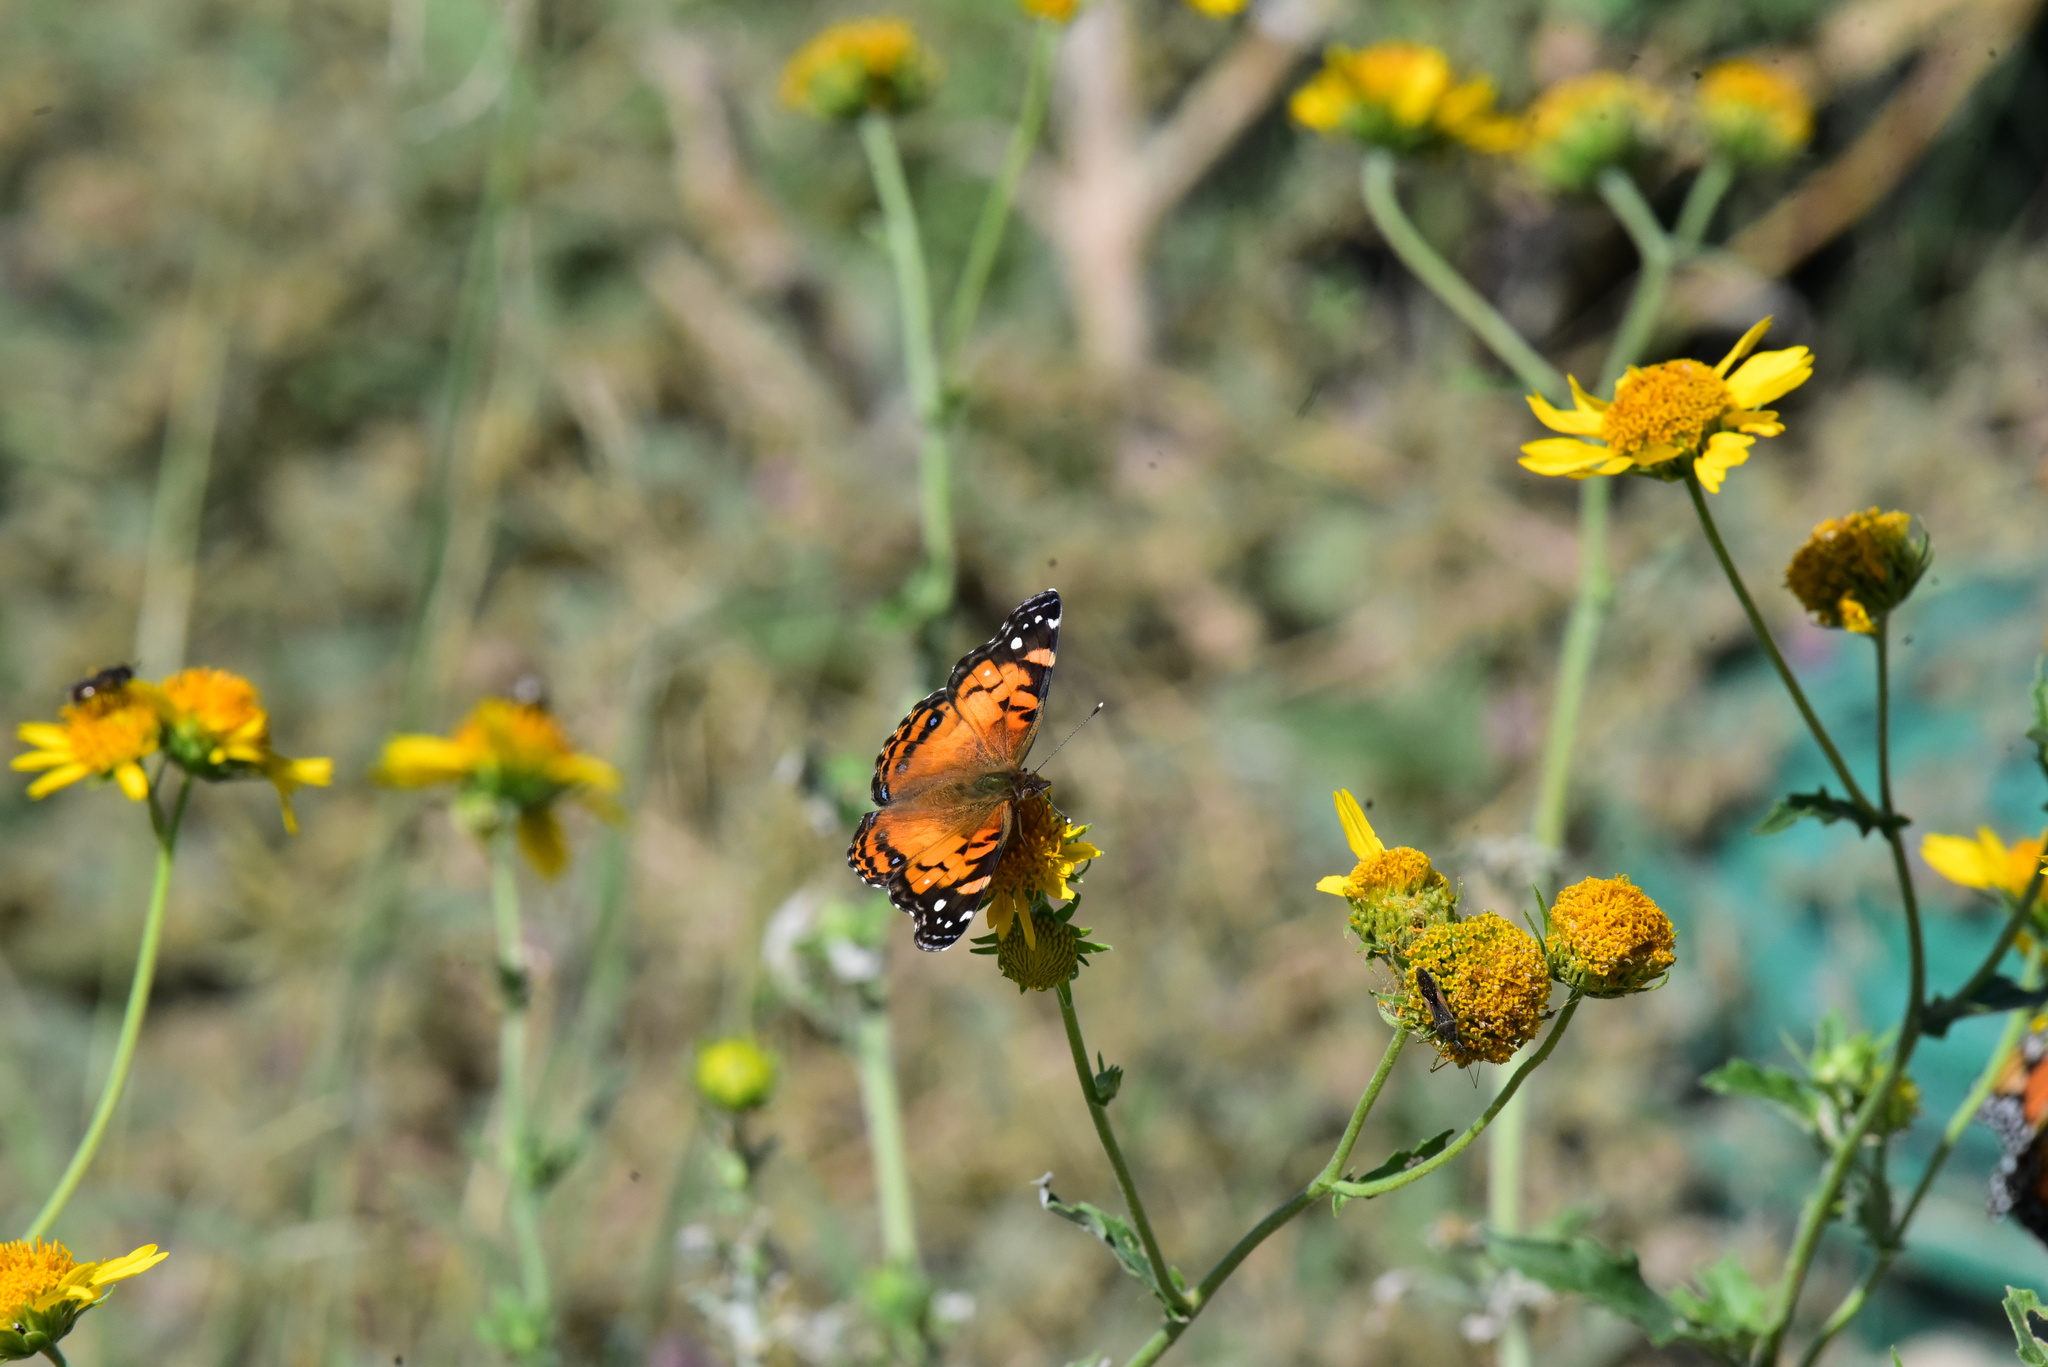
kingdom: Animalia
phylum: Arthropoda
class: Insecta
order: Lepidoptera
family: Nymphalidae
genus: Vanessa
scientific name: Vanessa virginiensis
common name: American lady
